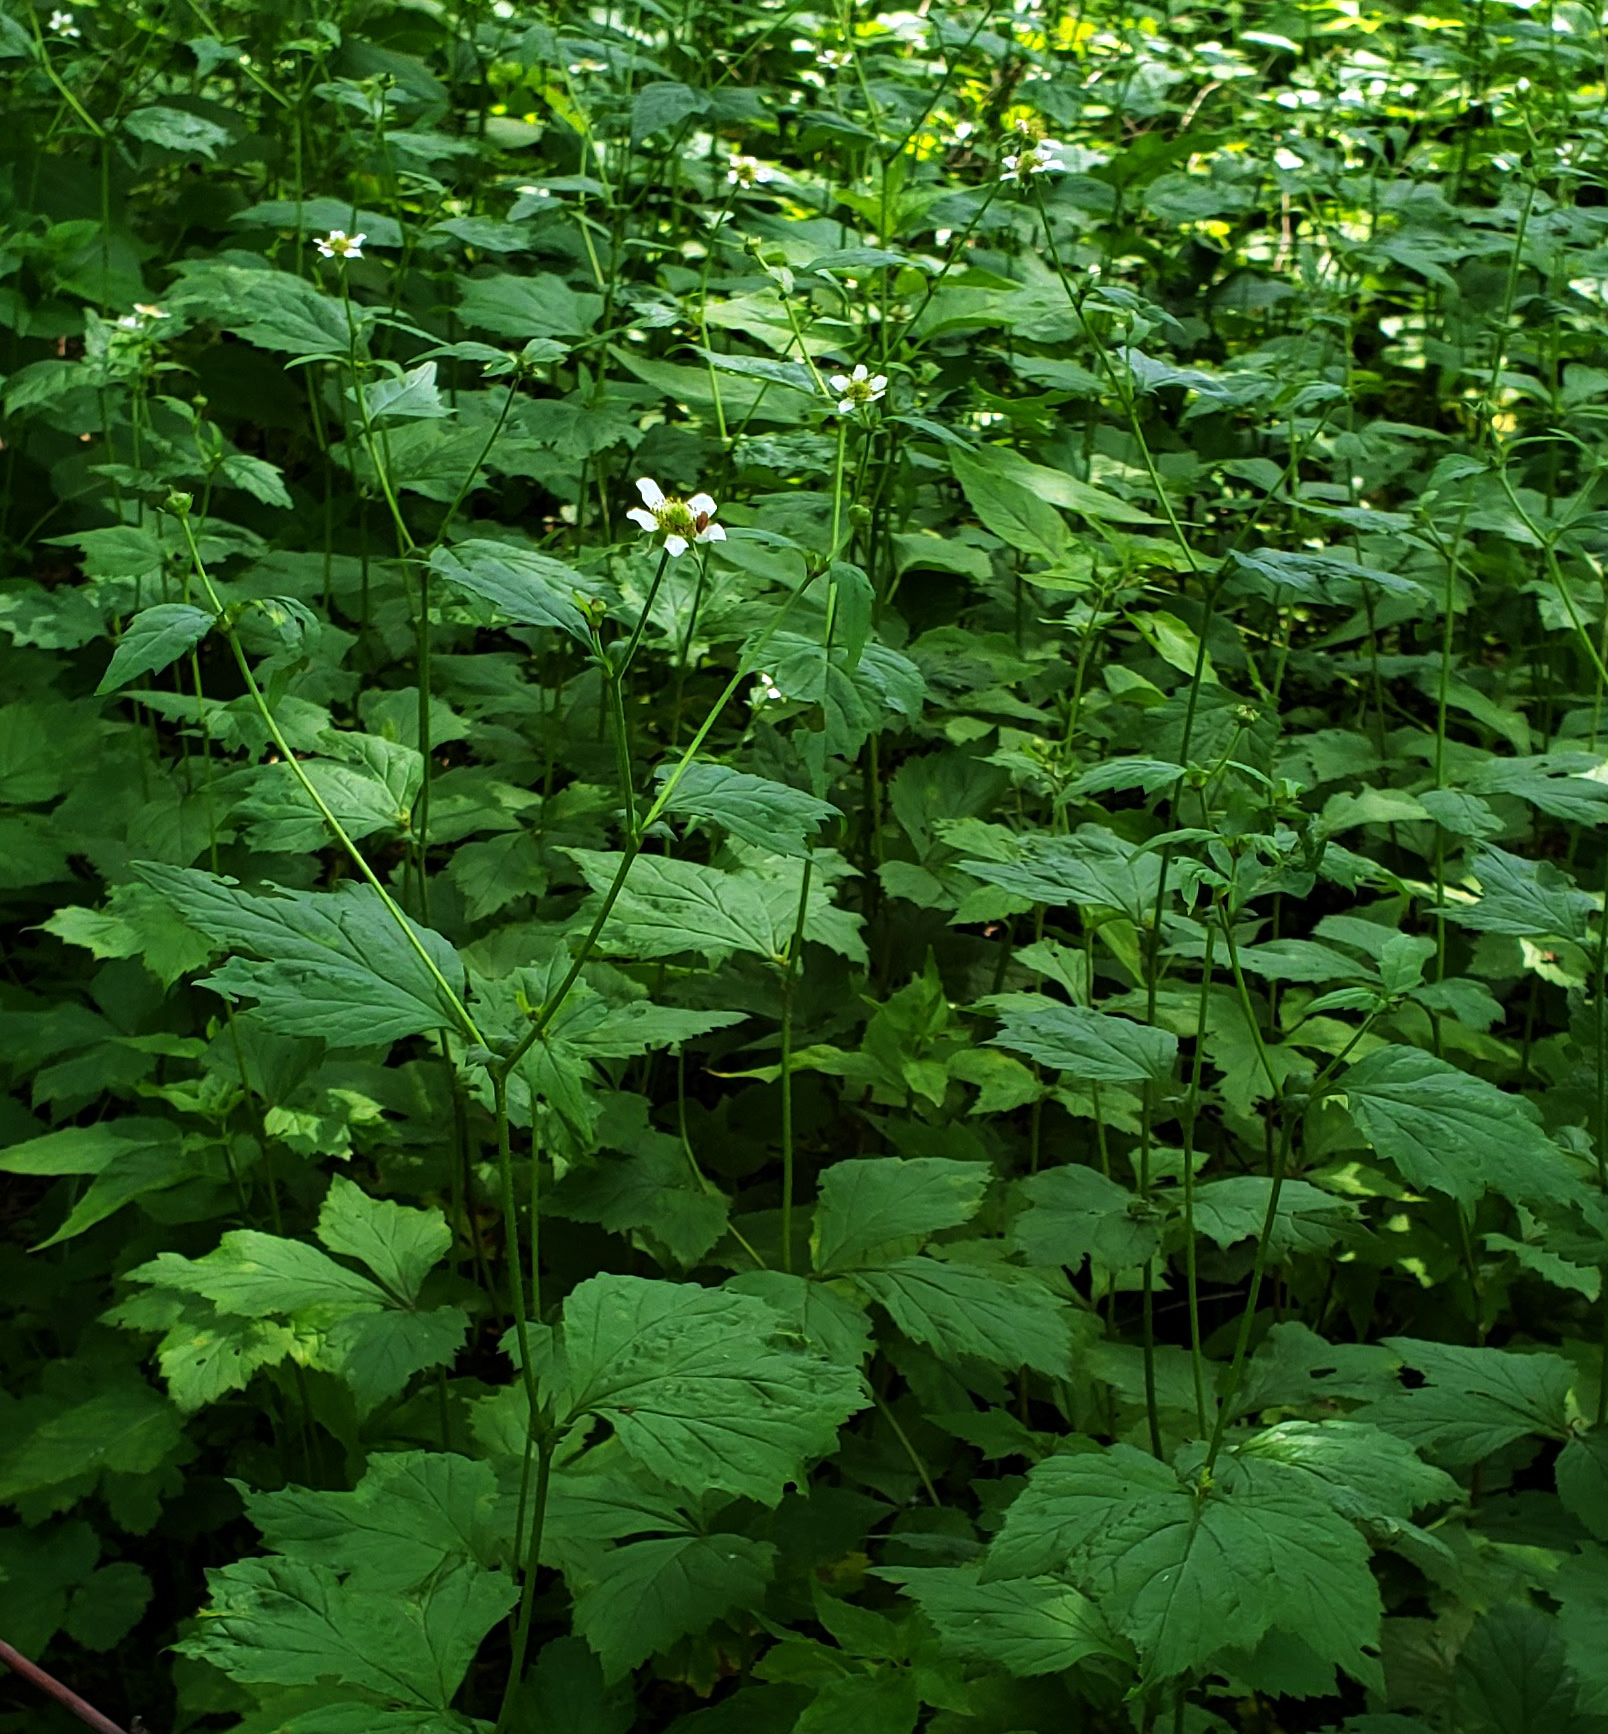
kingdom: Plantae
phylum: Tracheophyta
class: Magnoliopsida
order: Rosales
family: Rosaceae
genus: Geum
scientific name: Geum canadense
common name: White avens
